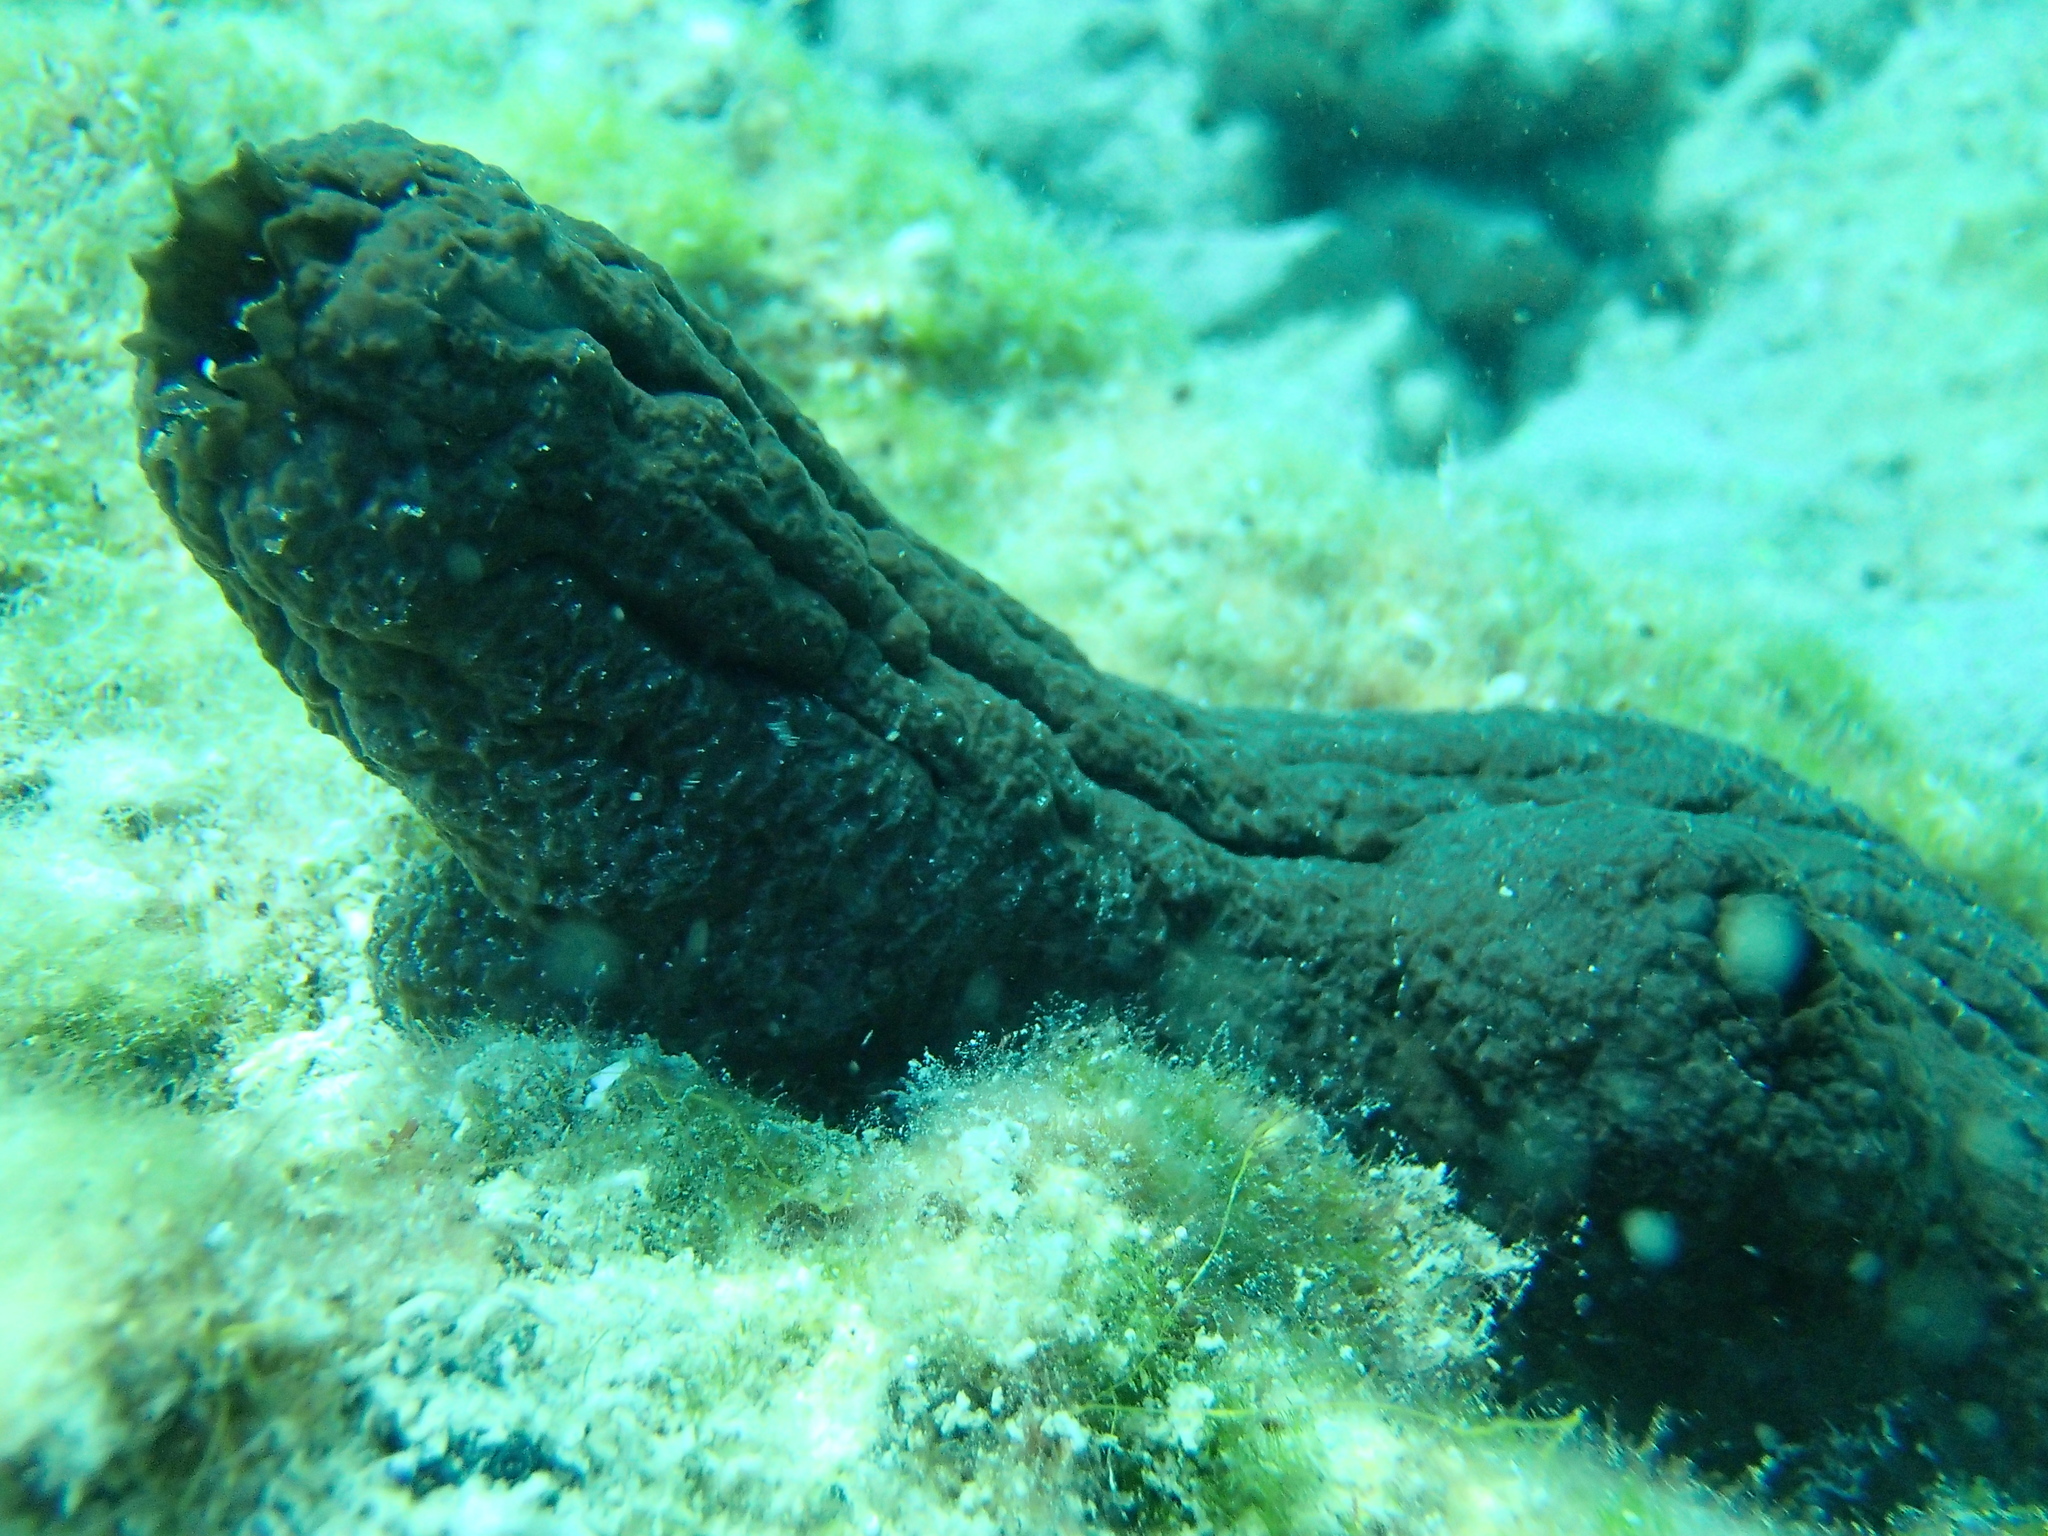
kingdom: Animalia
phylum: Chordata
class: Ascidiacea
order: Phlebobranchia
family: Ascidiidae
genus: Phallusia
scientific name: Phallusia fumigata
